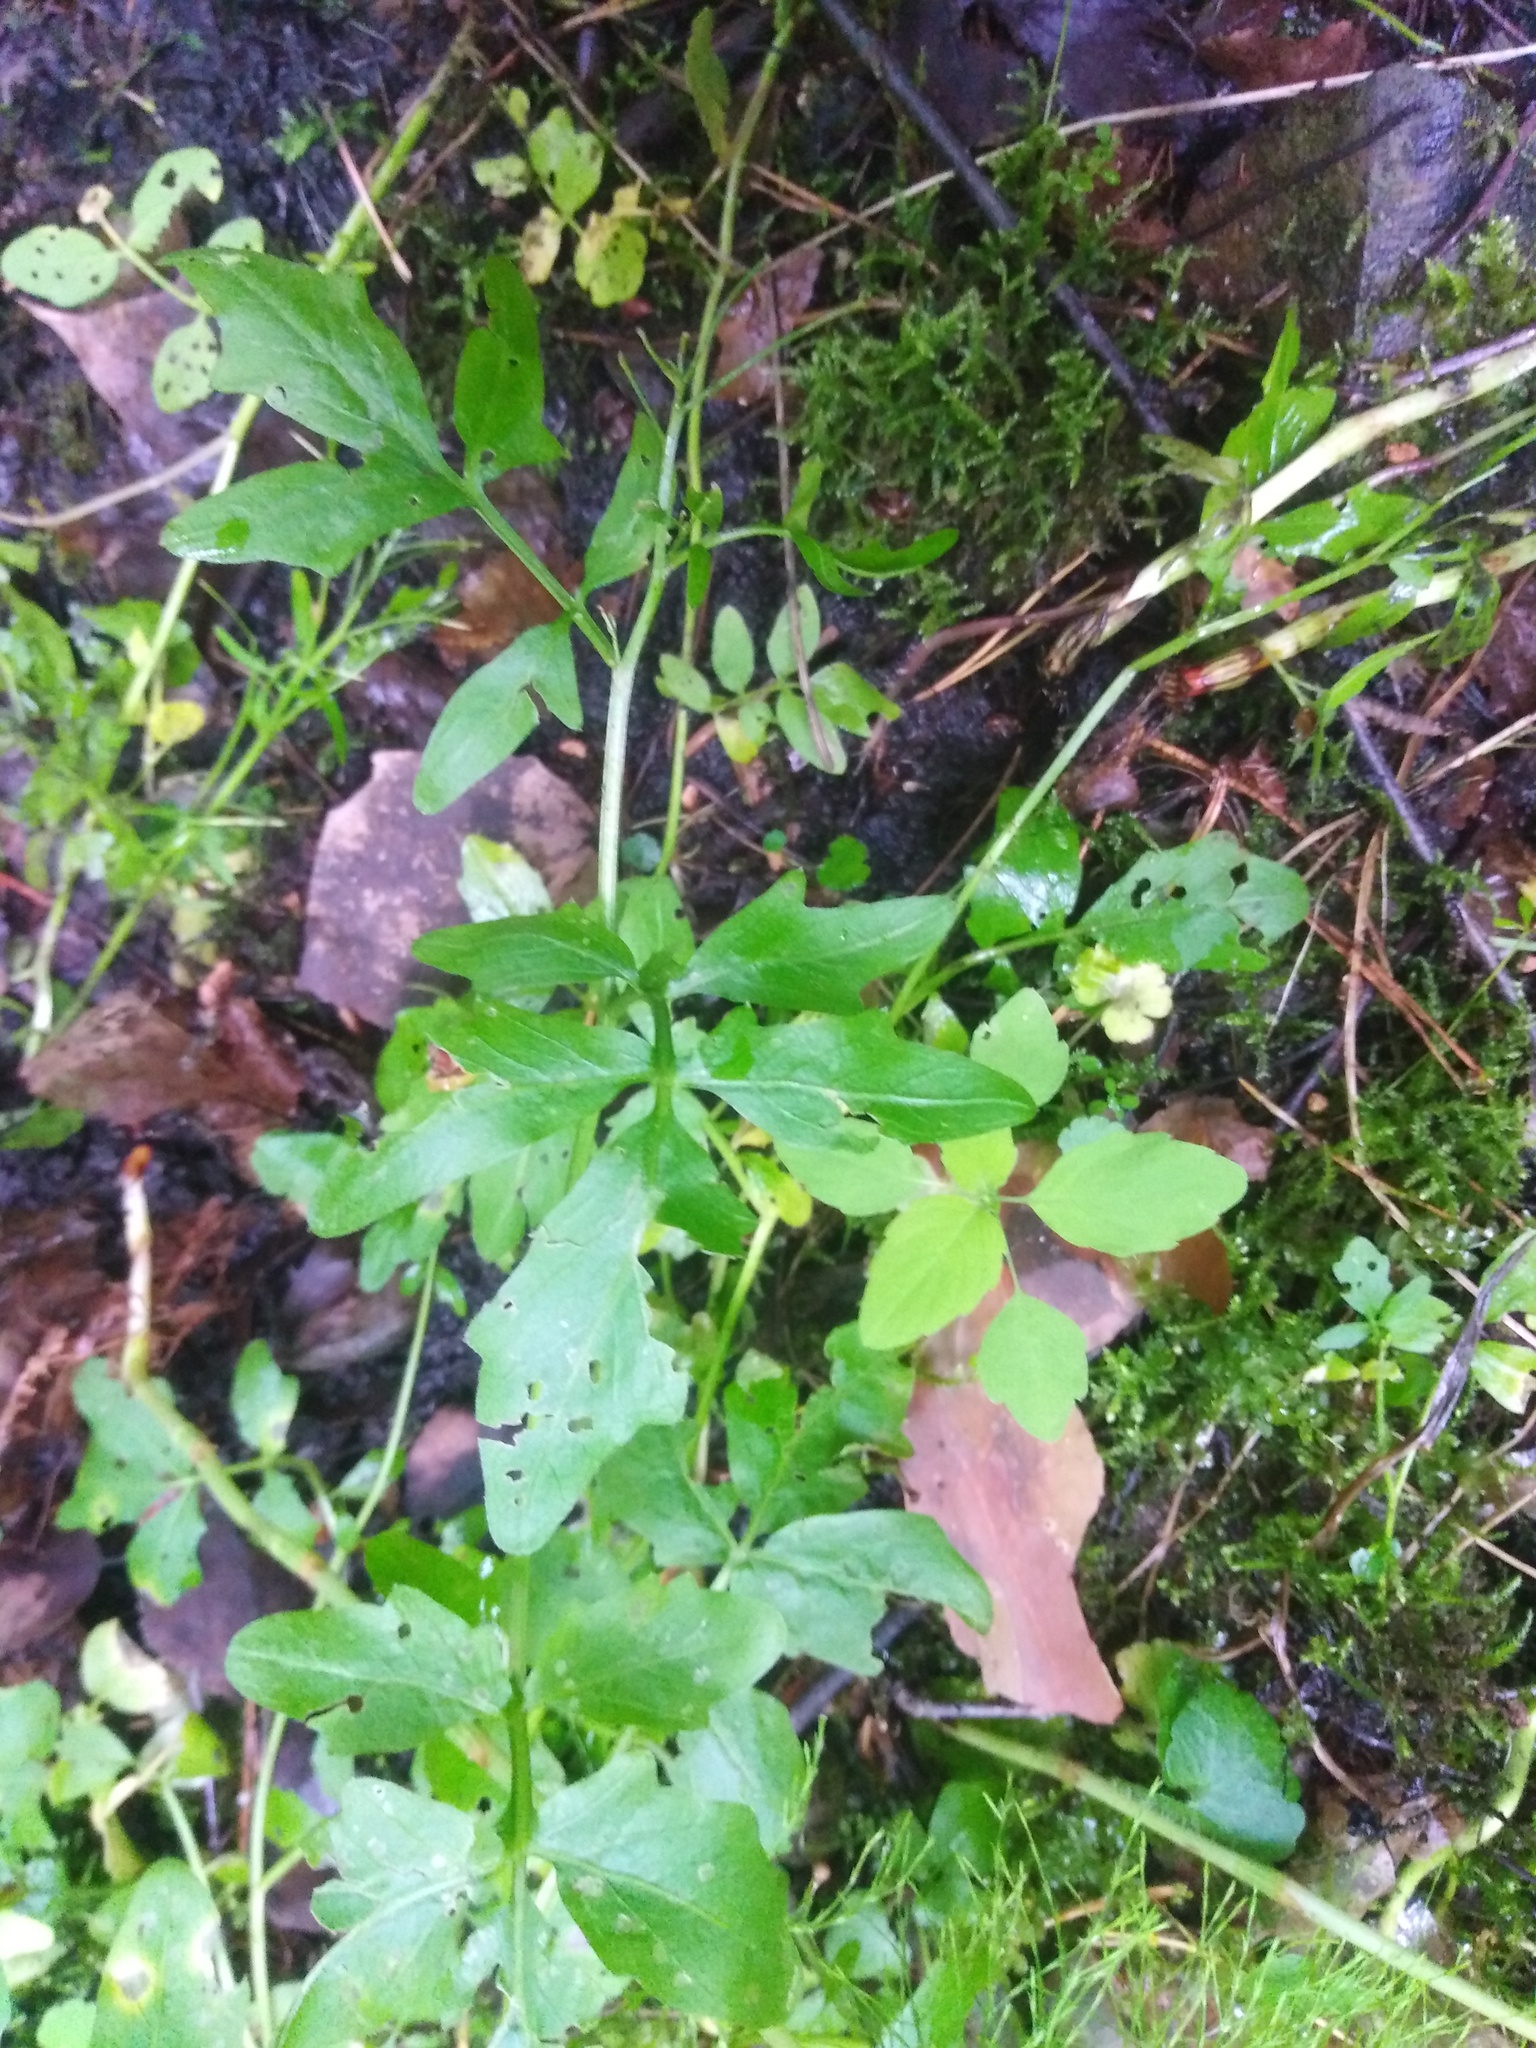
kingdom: Plantae
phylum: Tracheophyta
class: Magnoliopsida
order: Brassicales
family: Brassicaceae
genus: Cardamine
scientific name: Cardamine amara
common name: Large bitter-cress
